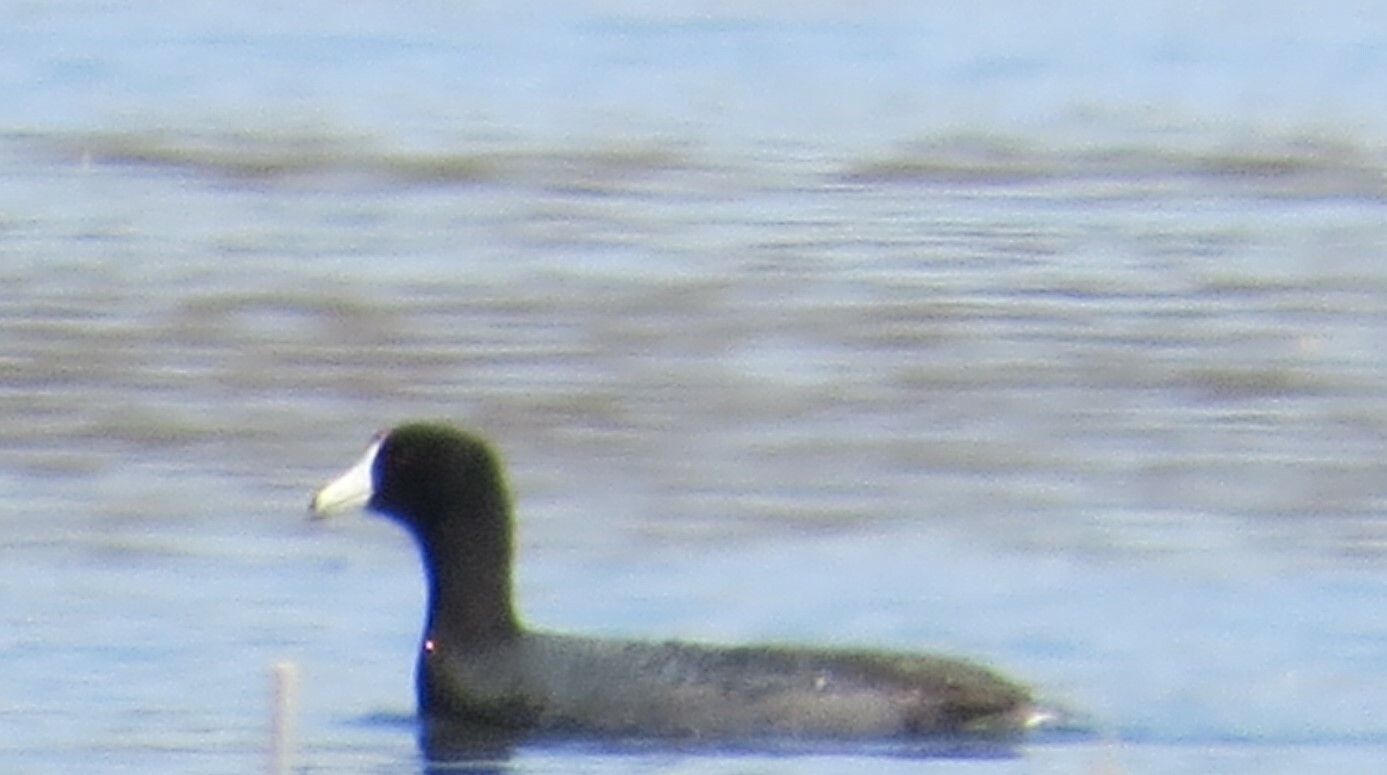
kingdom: Animalia
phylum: Chordata
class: Aves
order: Gruiformes
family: Rallidae
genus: Fulica
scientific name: Fulica americana
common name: American coot
